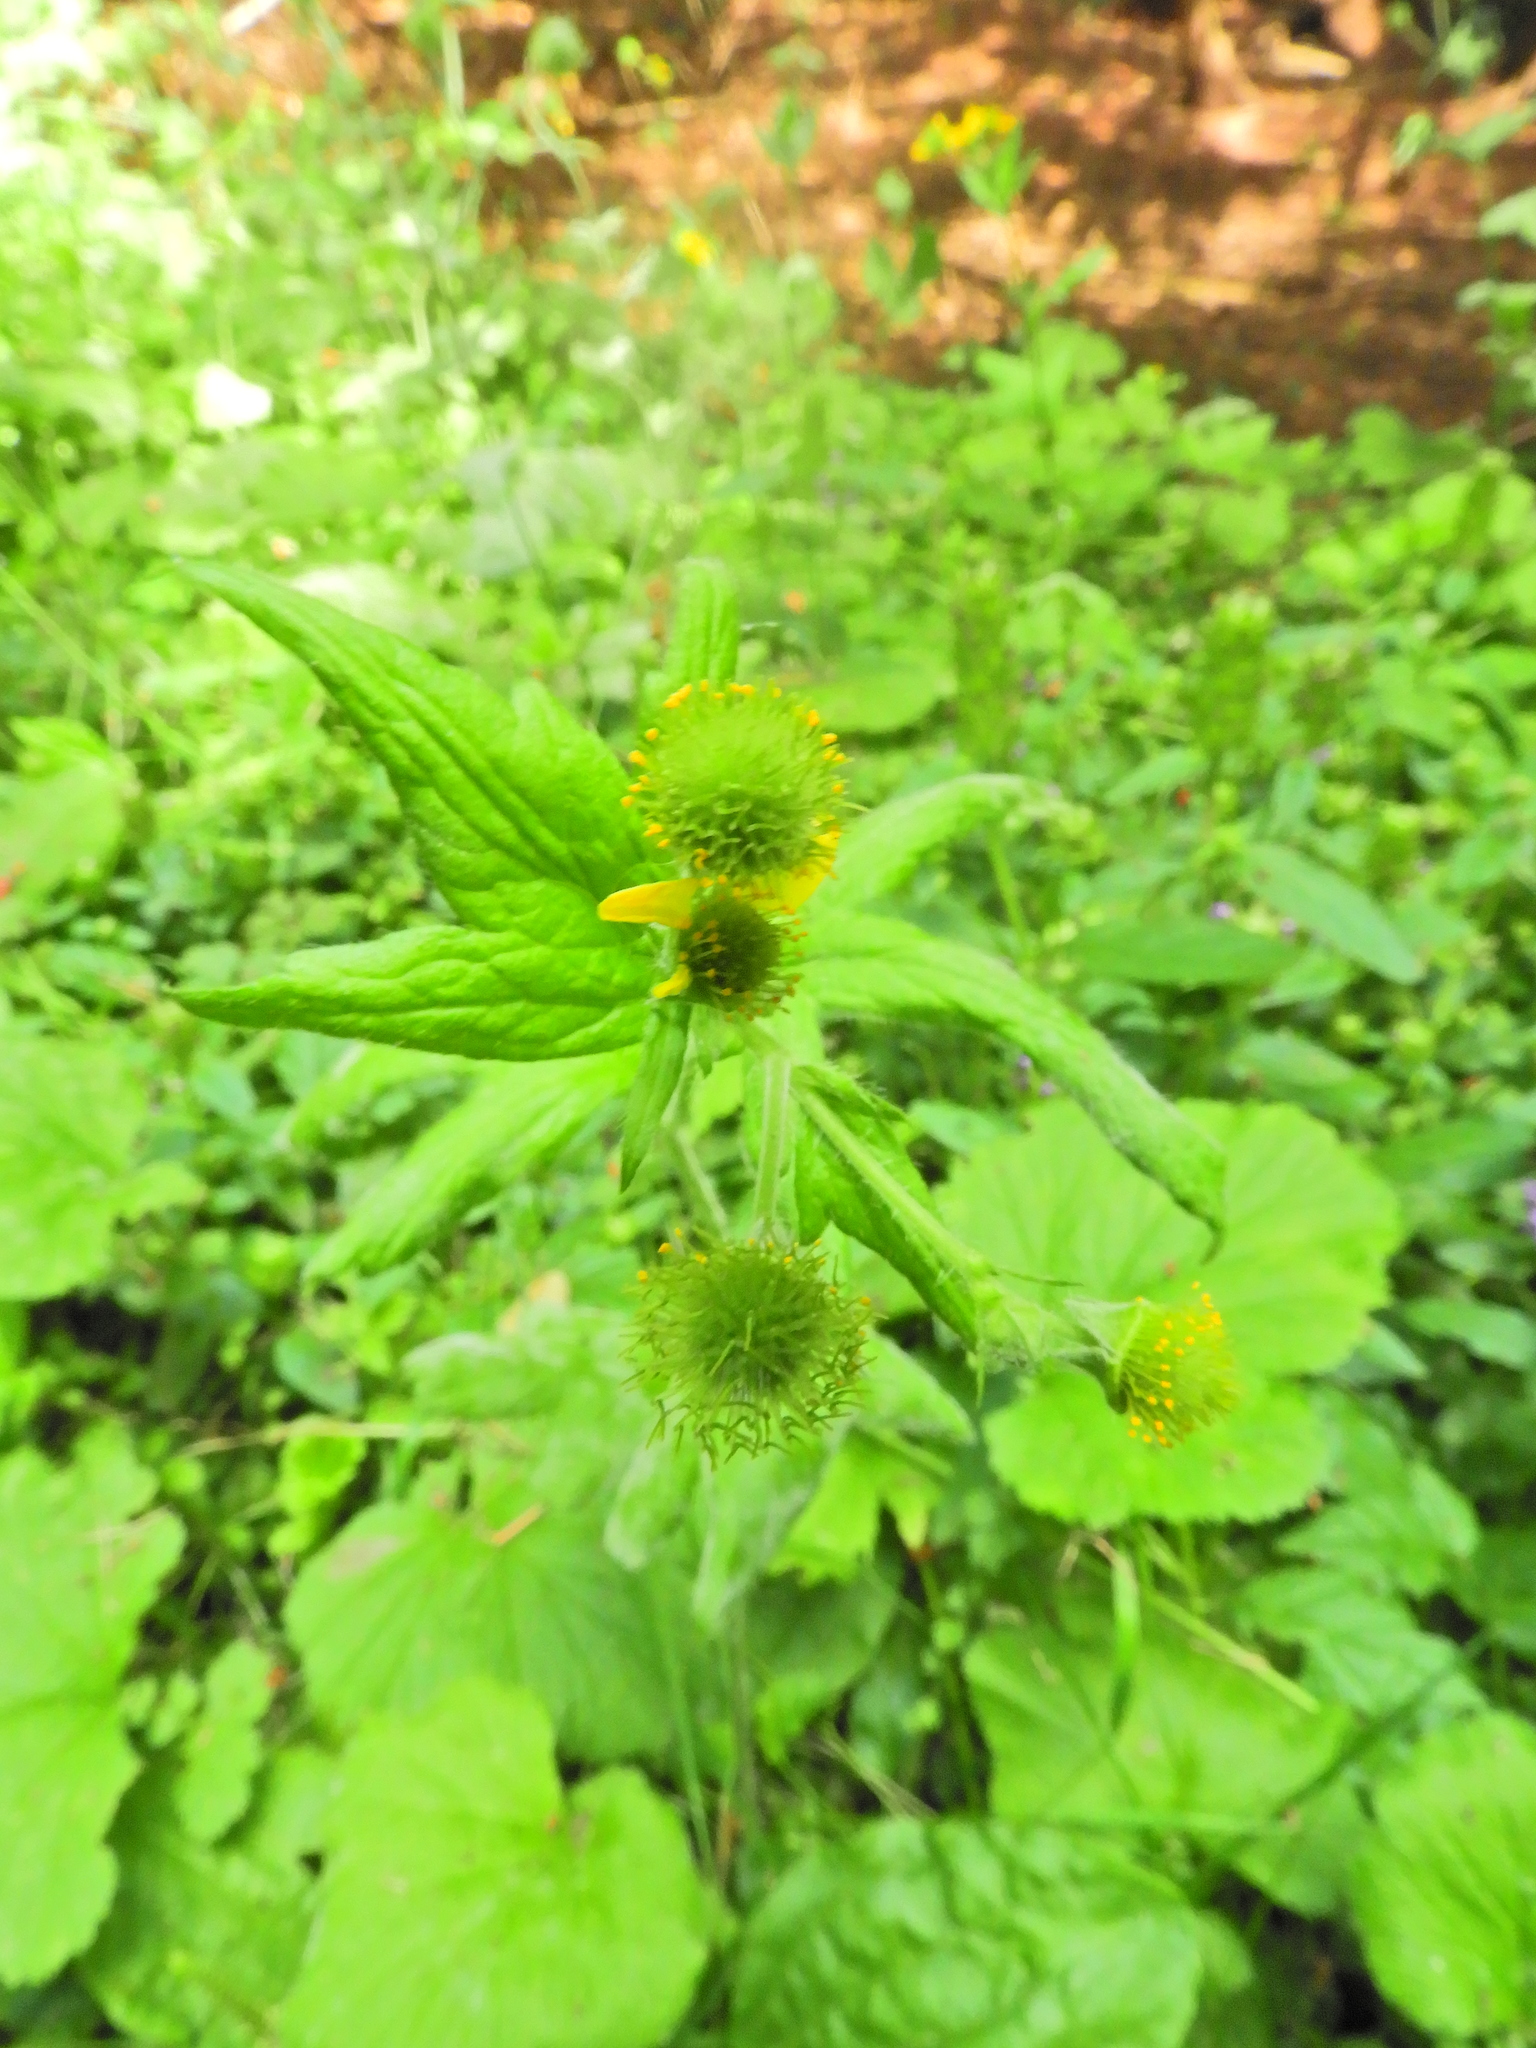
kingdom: Plantae
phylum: Tracheophyta
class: Magnoliopsida
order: Rosales
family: Rosaceae
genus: Geum
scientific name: Geum macrophyllum
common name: Large-leaved avens
